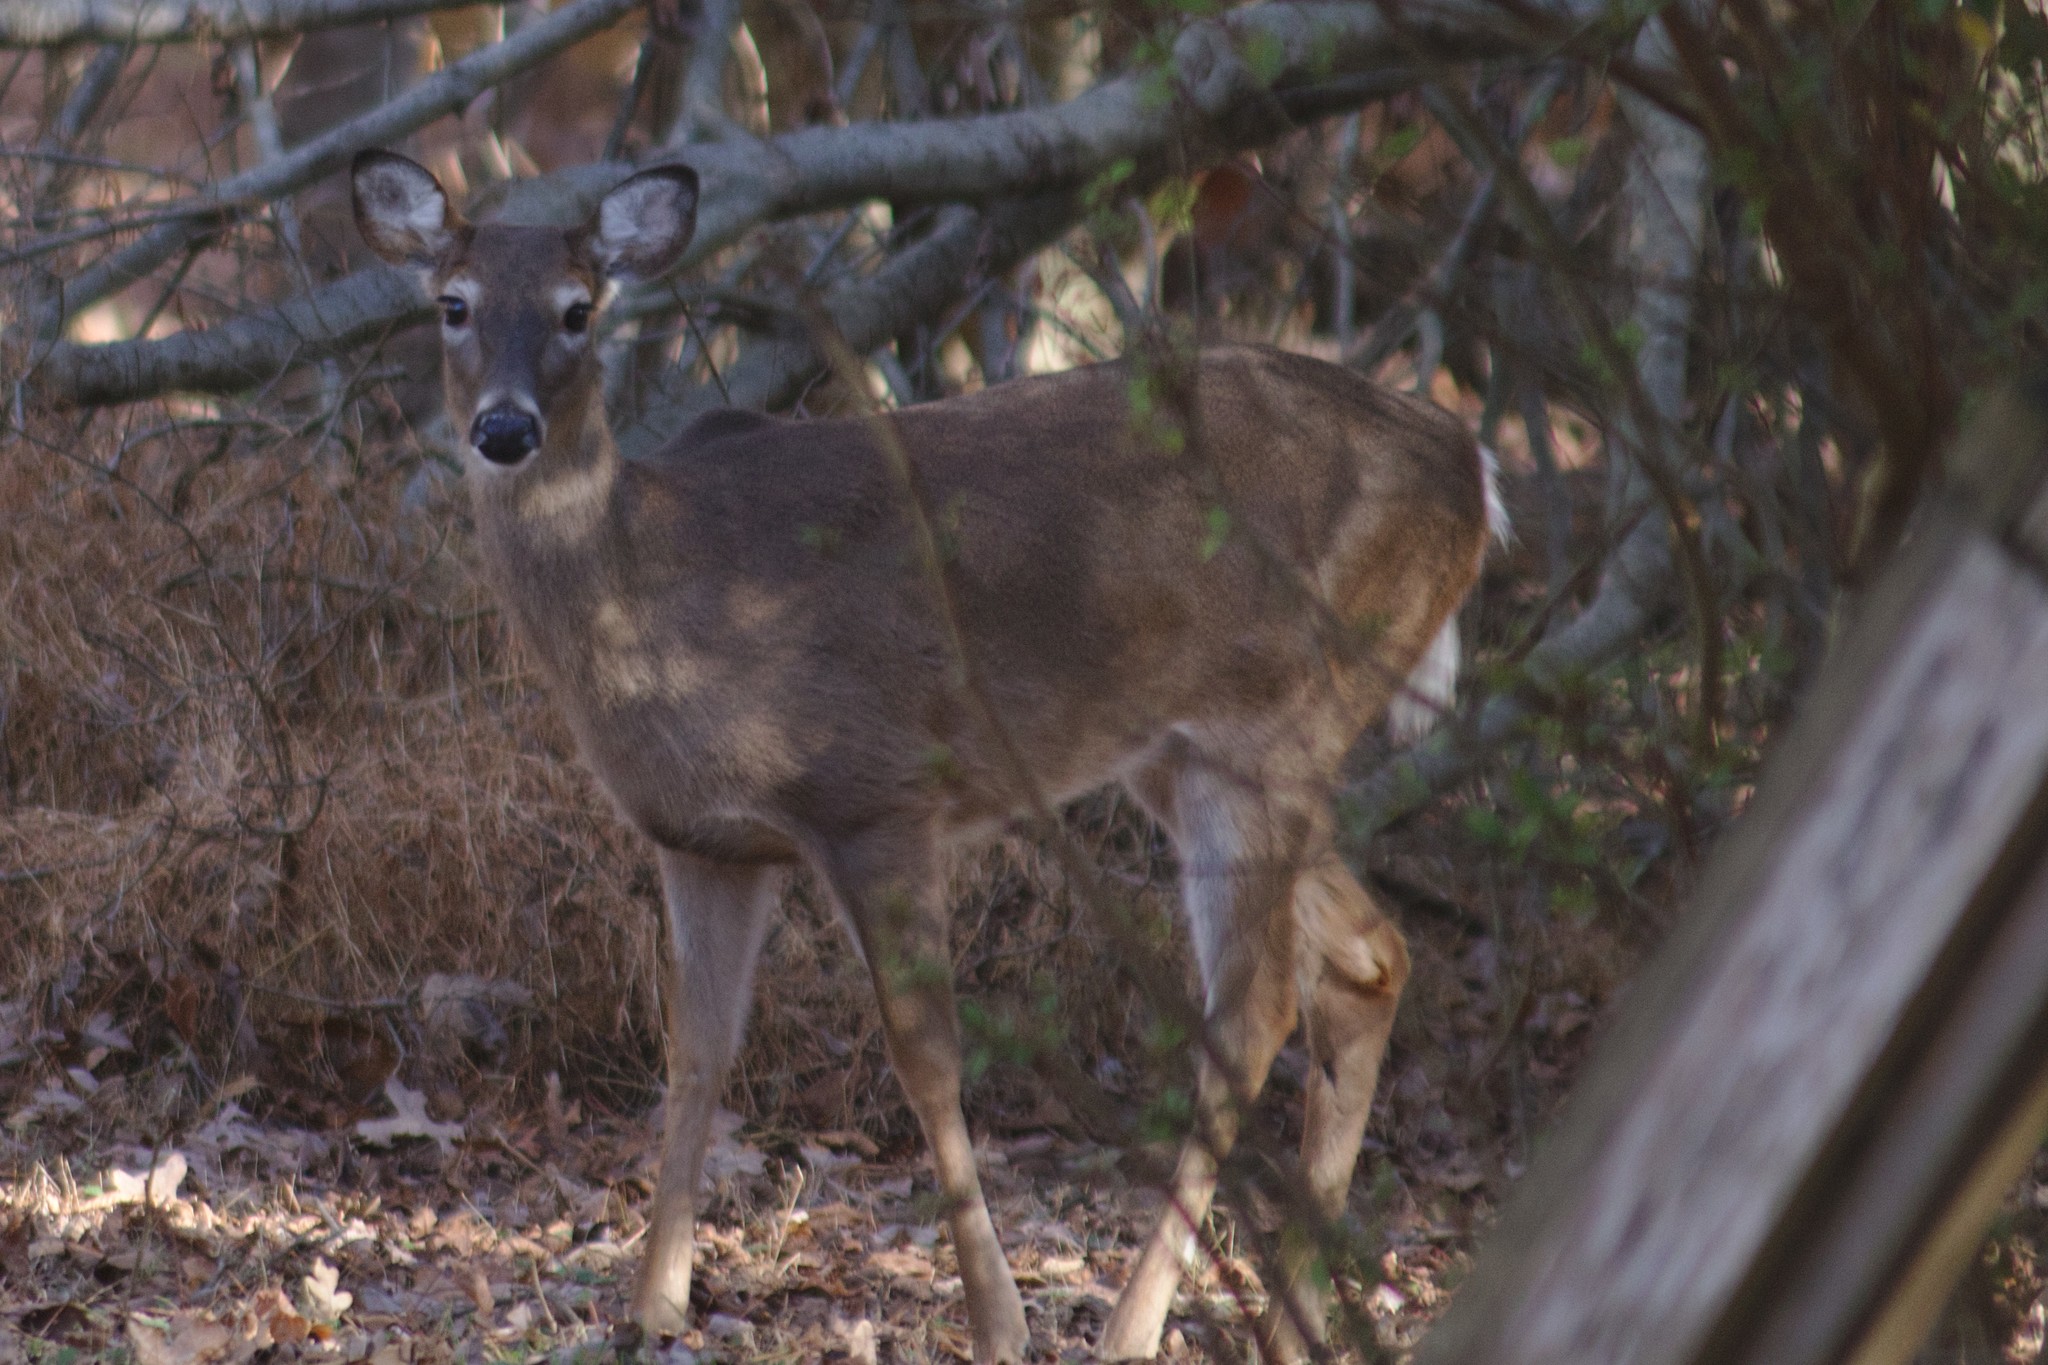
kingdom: Animalia
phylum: Chordata
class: Mammalia
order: Artiodactyla
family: Cervidae
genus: Odocoileus
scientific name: Odocoileus virginianus
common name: White-tailed deer
